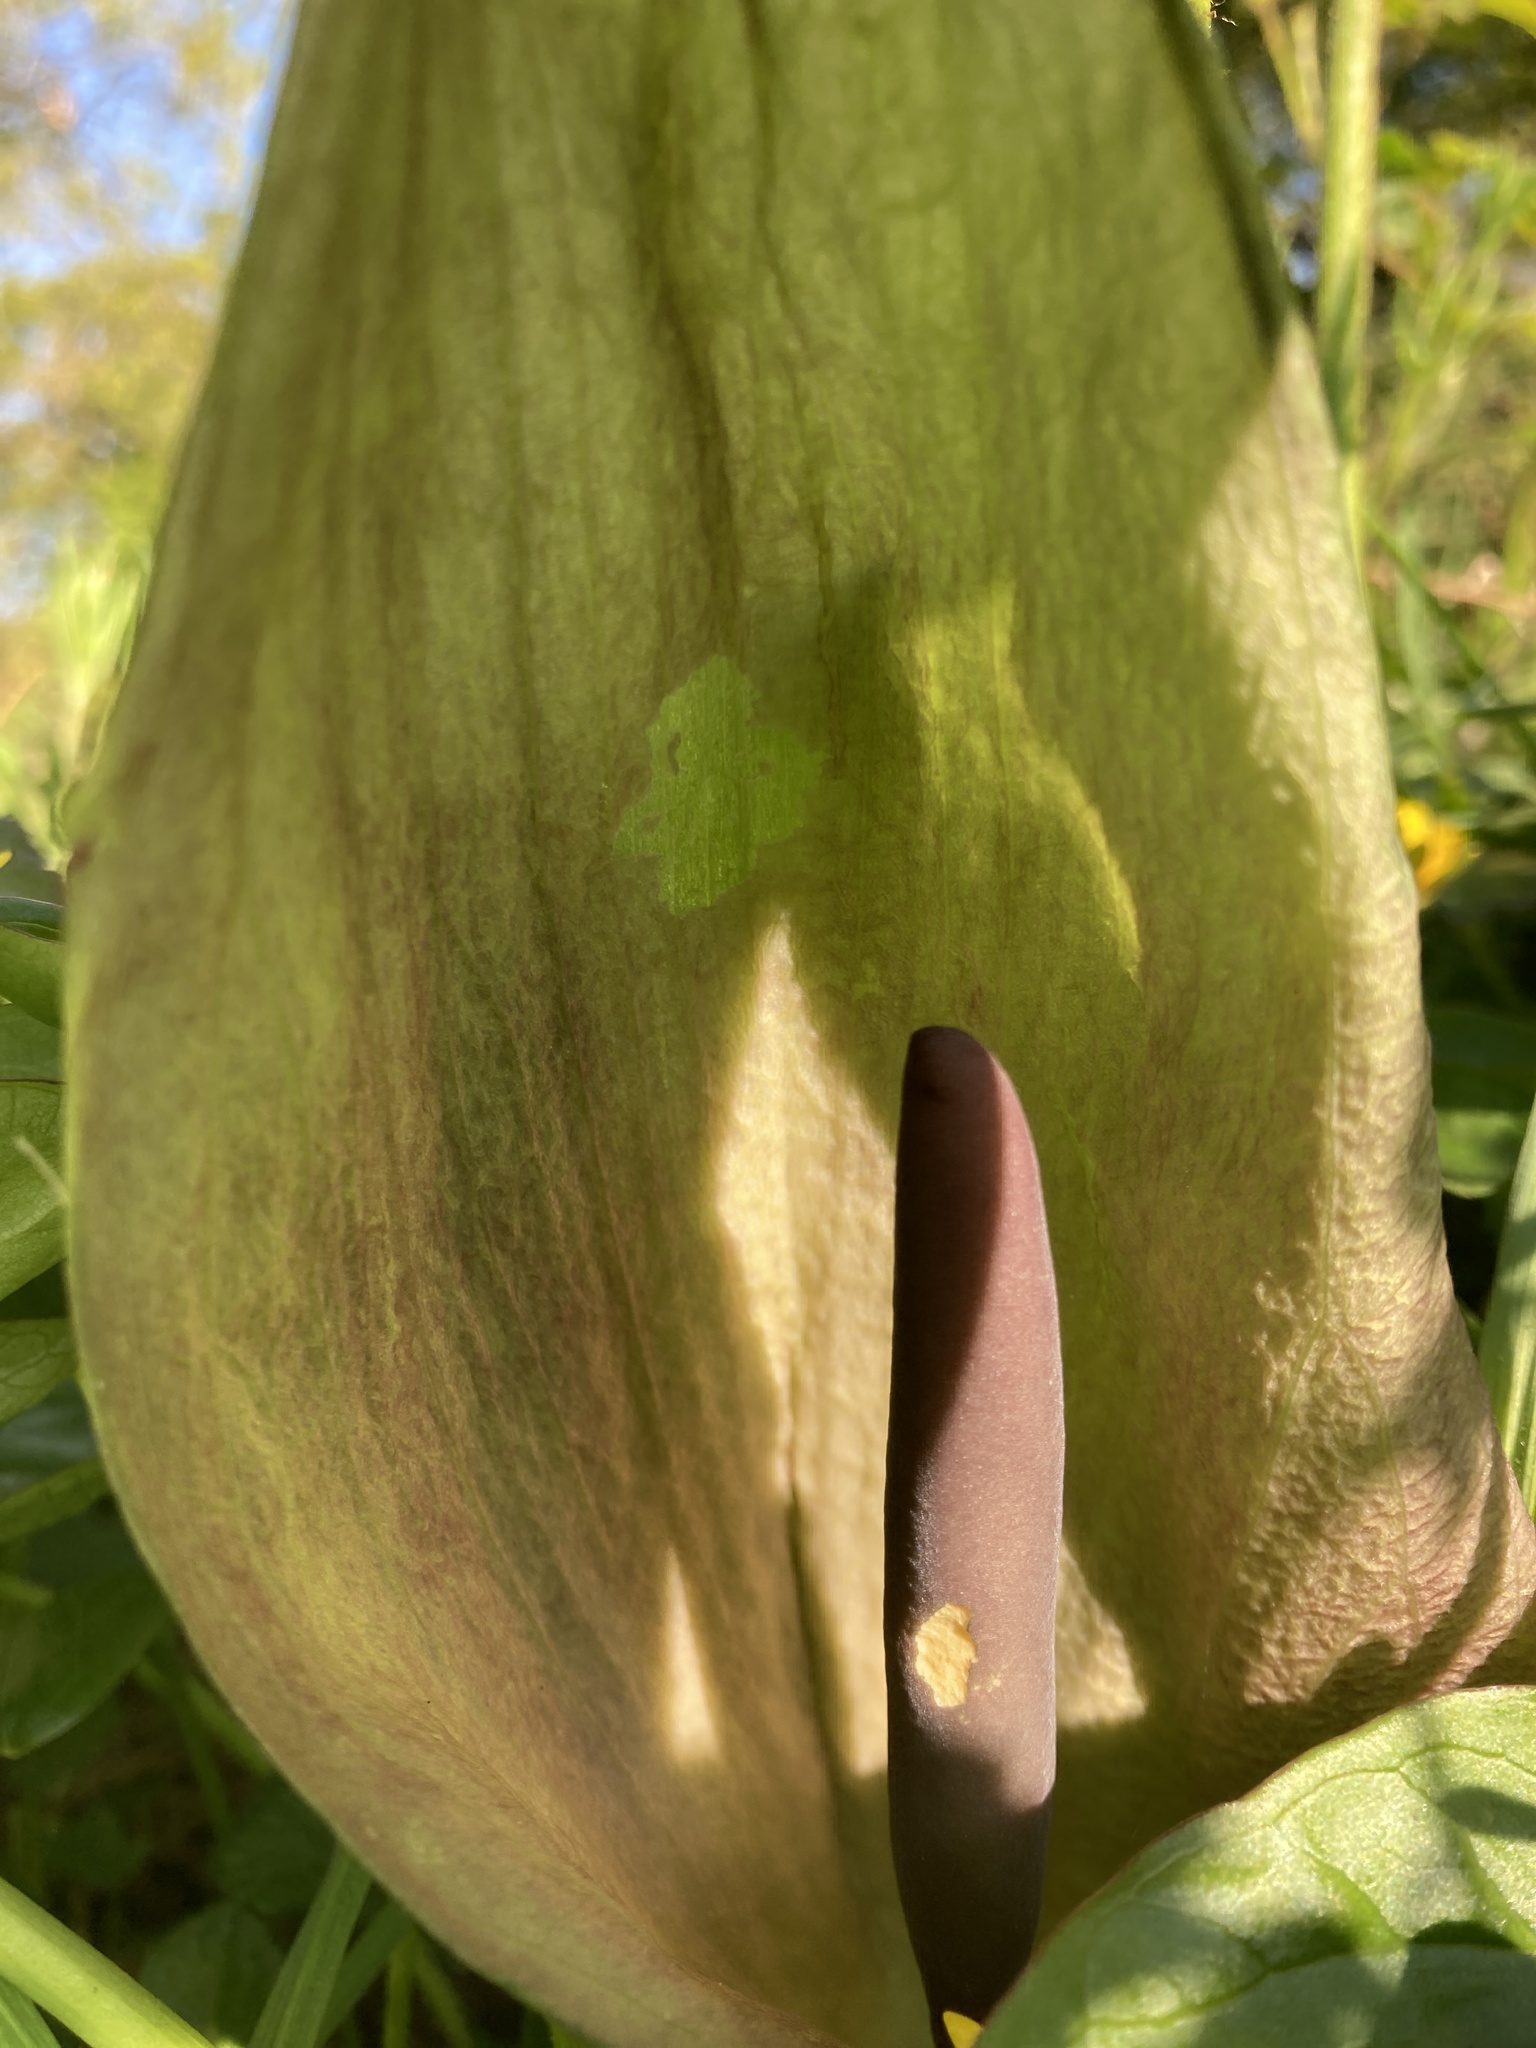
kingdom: Plantae
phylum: Tracheophyta
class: Liliopsida
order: Alismatales
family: Araceae
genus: Arum
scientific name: Arum maculatum
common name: Lords-and-ladies
